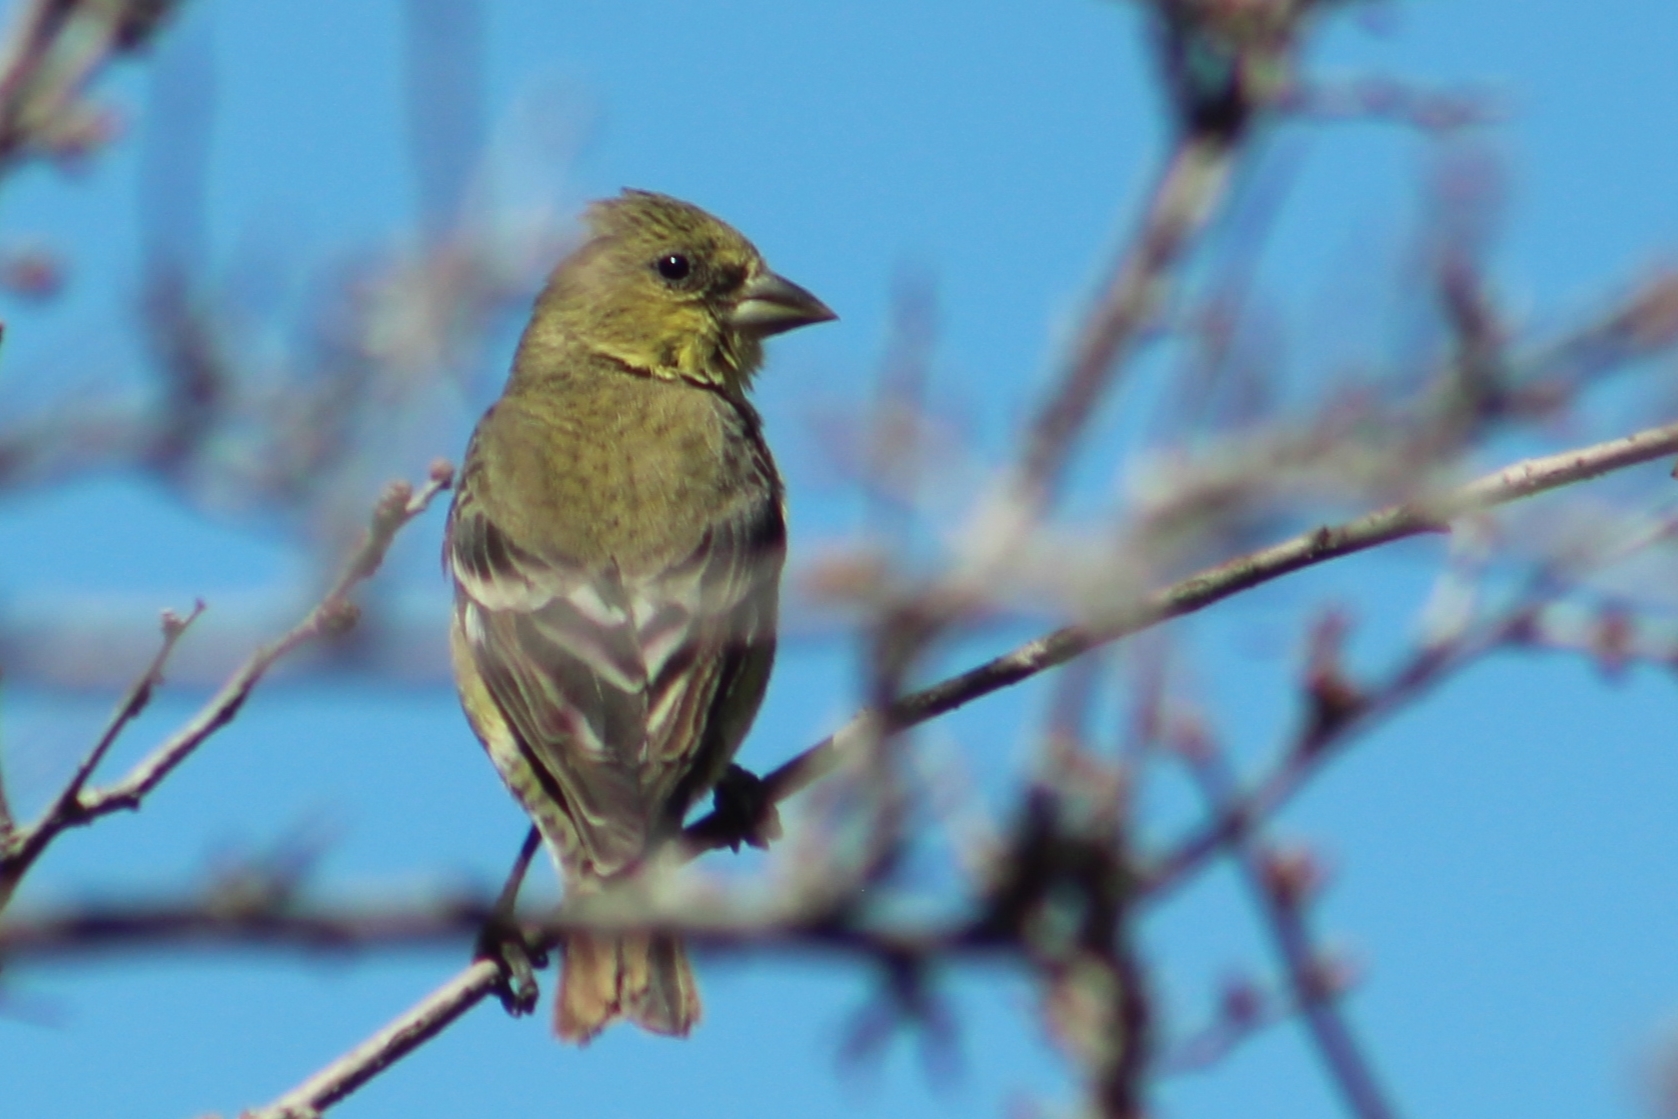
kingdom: Animalia
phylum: Chordata
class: Aves
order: Passeriformes
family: Fringillidae
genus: Spinus
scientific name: Spinus psaltria
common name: Lesser goldfinch
